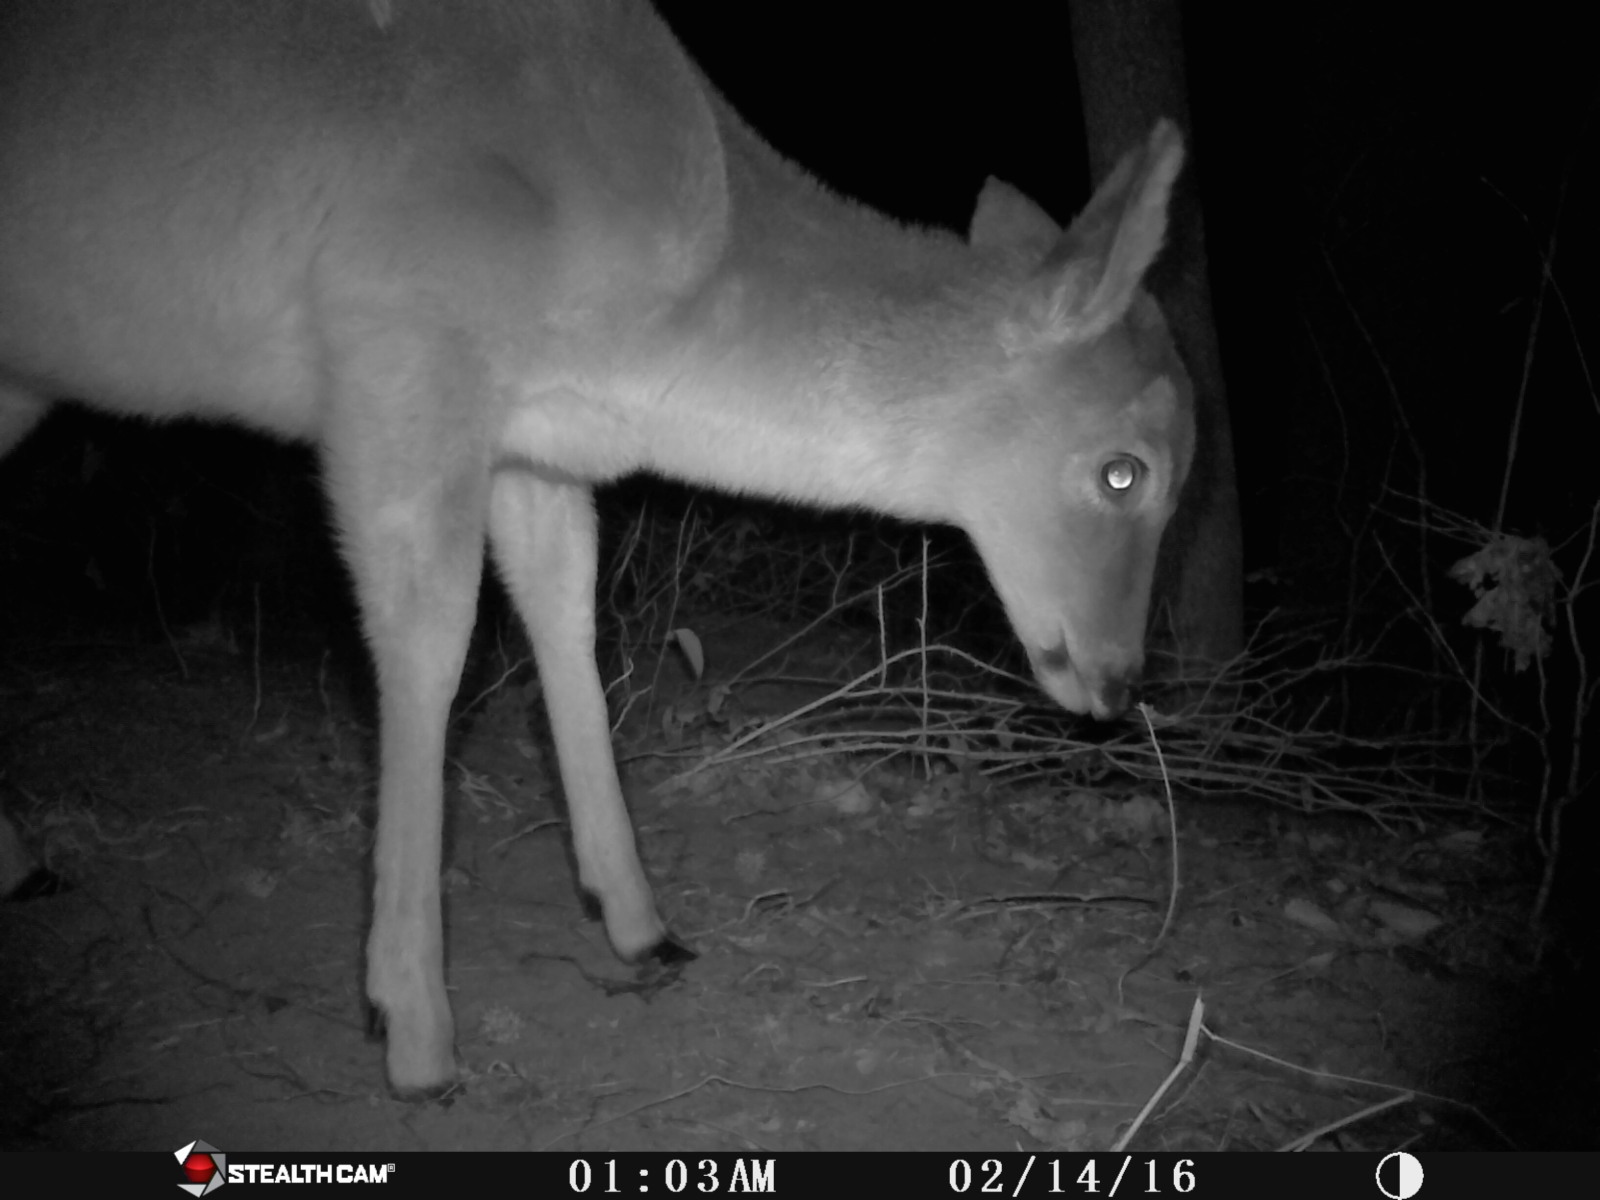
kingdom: Animalia
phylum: Chordata
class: Mammalia
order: Artiodactyla
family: Cervidae
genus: Odocoileus
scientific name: Odocoileus virginianus
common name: White-tailed deer
